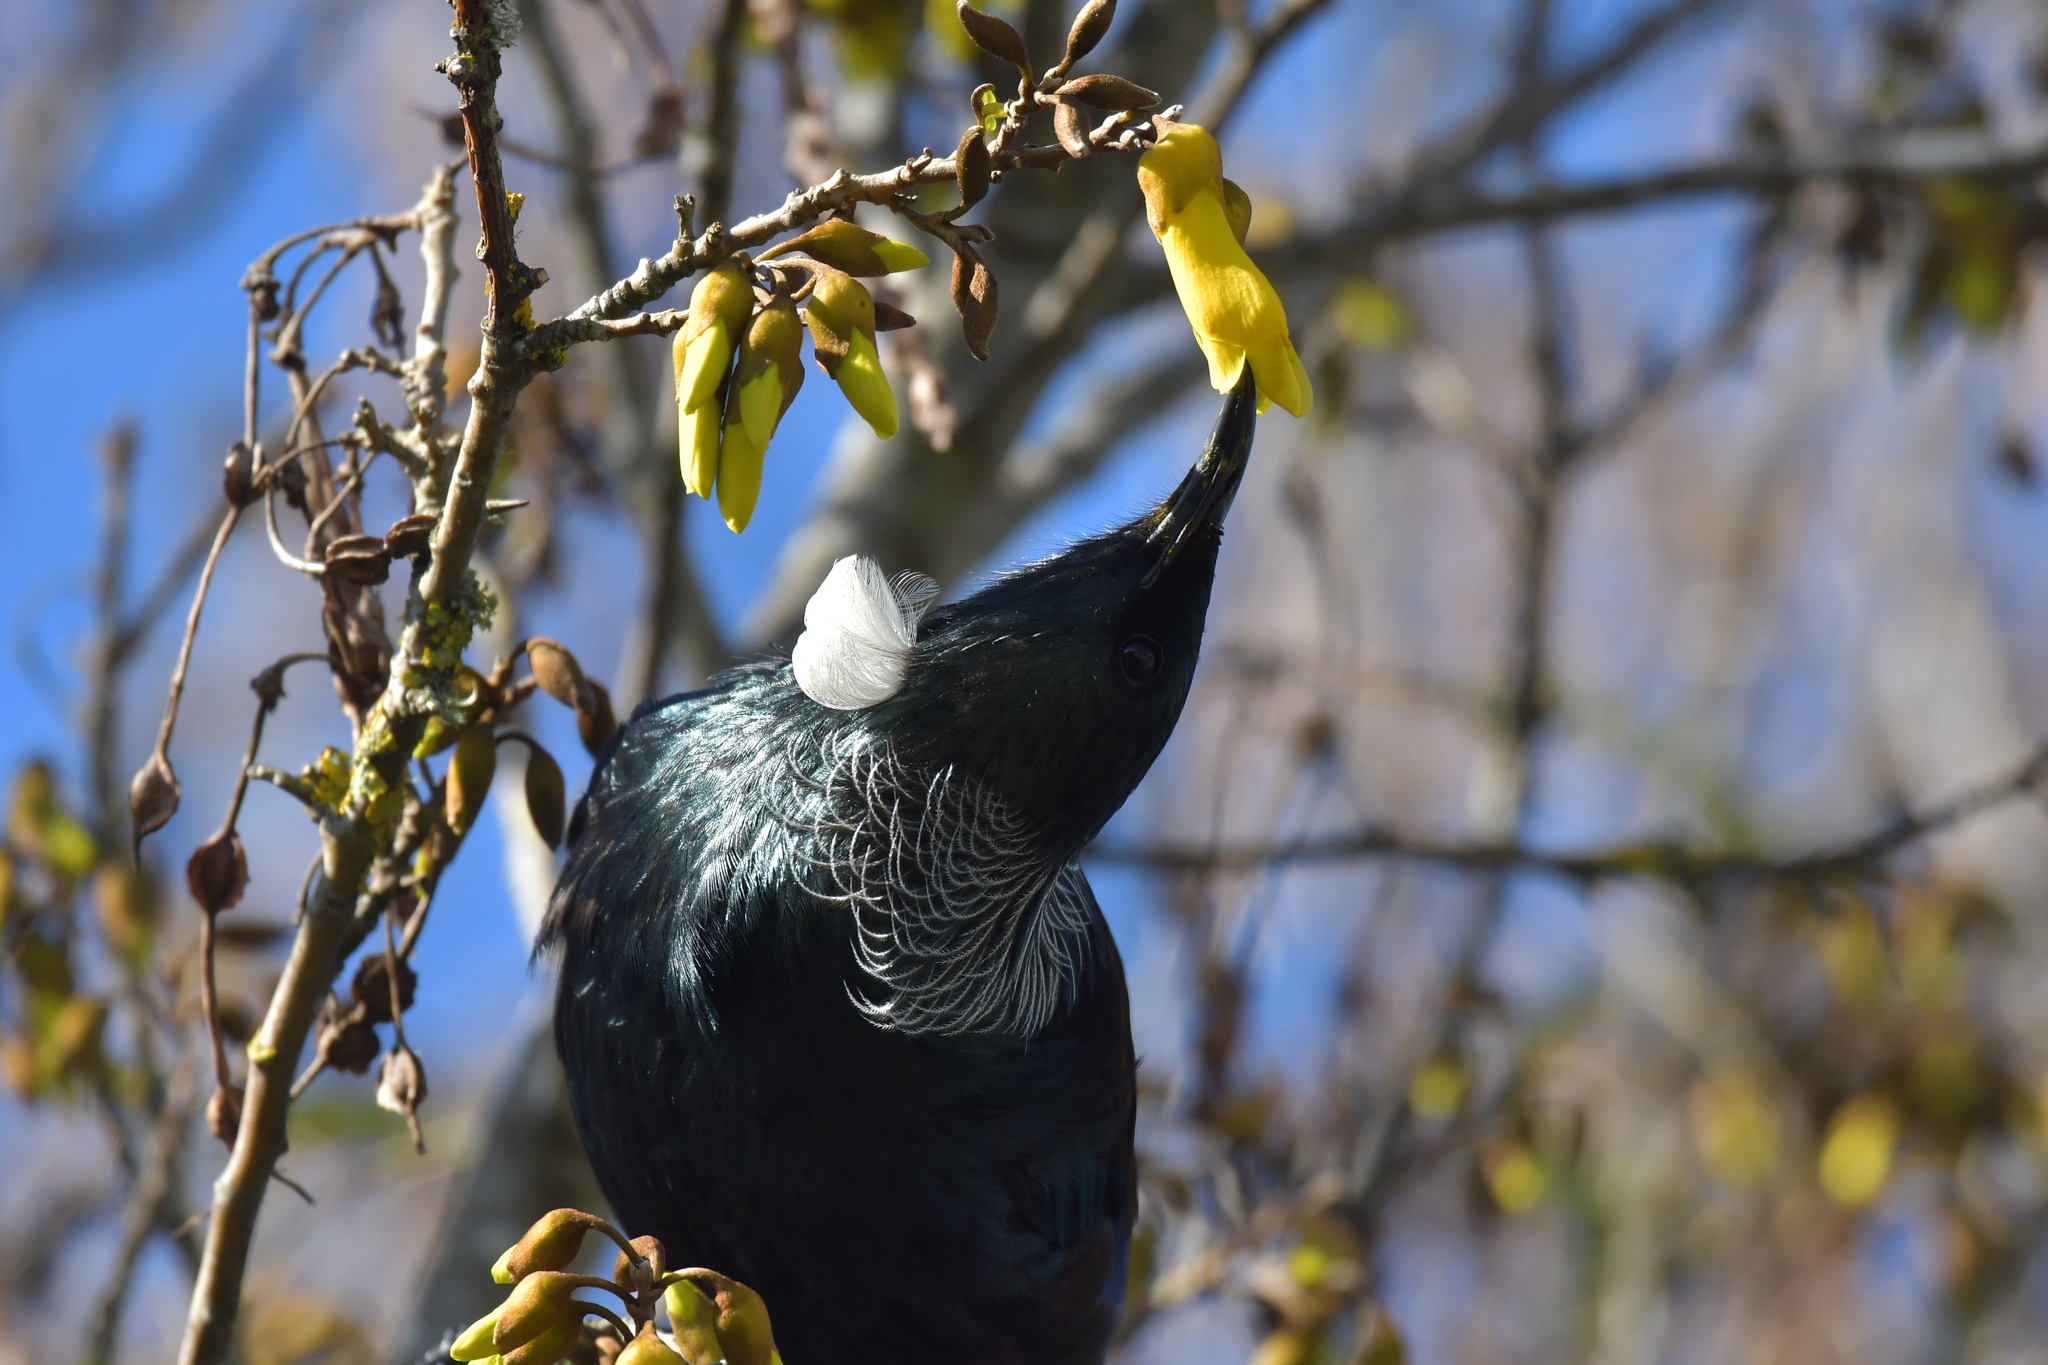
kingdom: Animalia
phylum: Chordata
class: Aves
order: Passeriformes
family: Meliphagidae
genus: Prosthemadera
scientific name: Prosthemadera novaeseelandiae
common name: Tui
